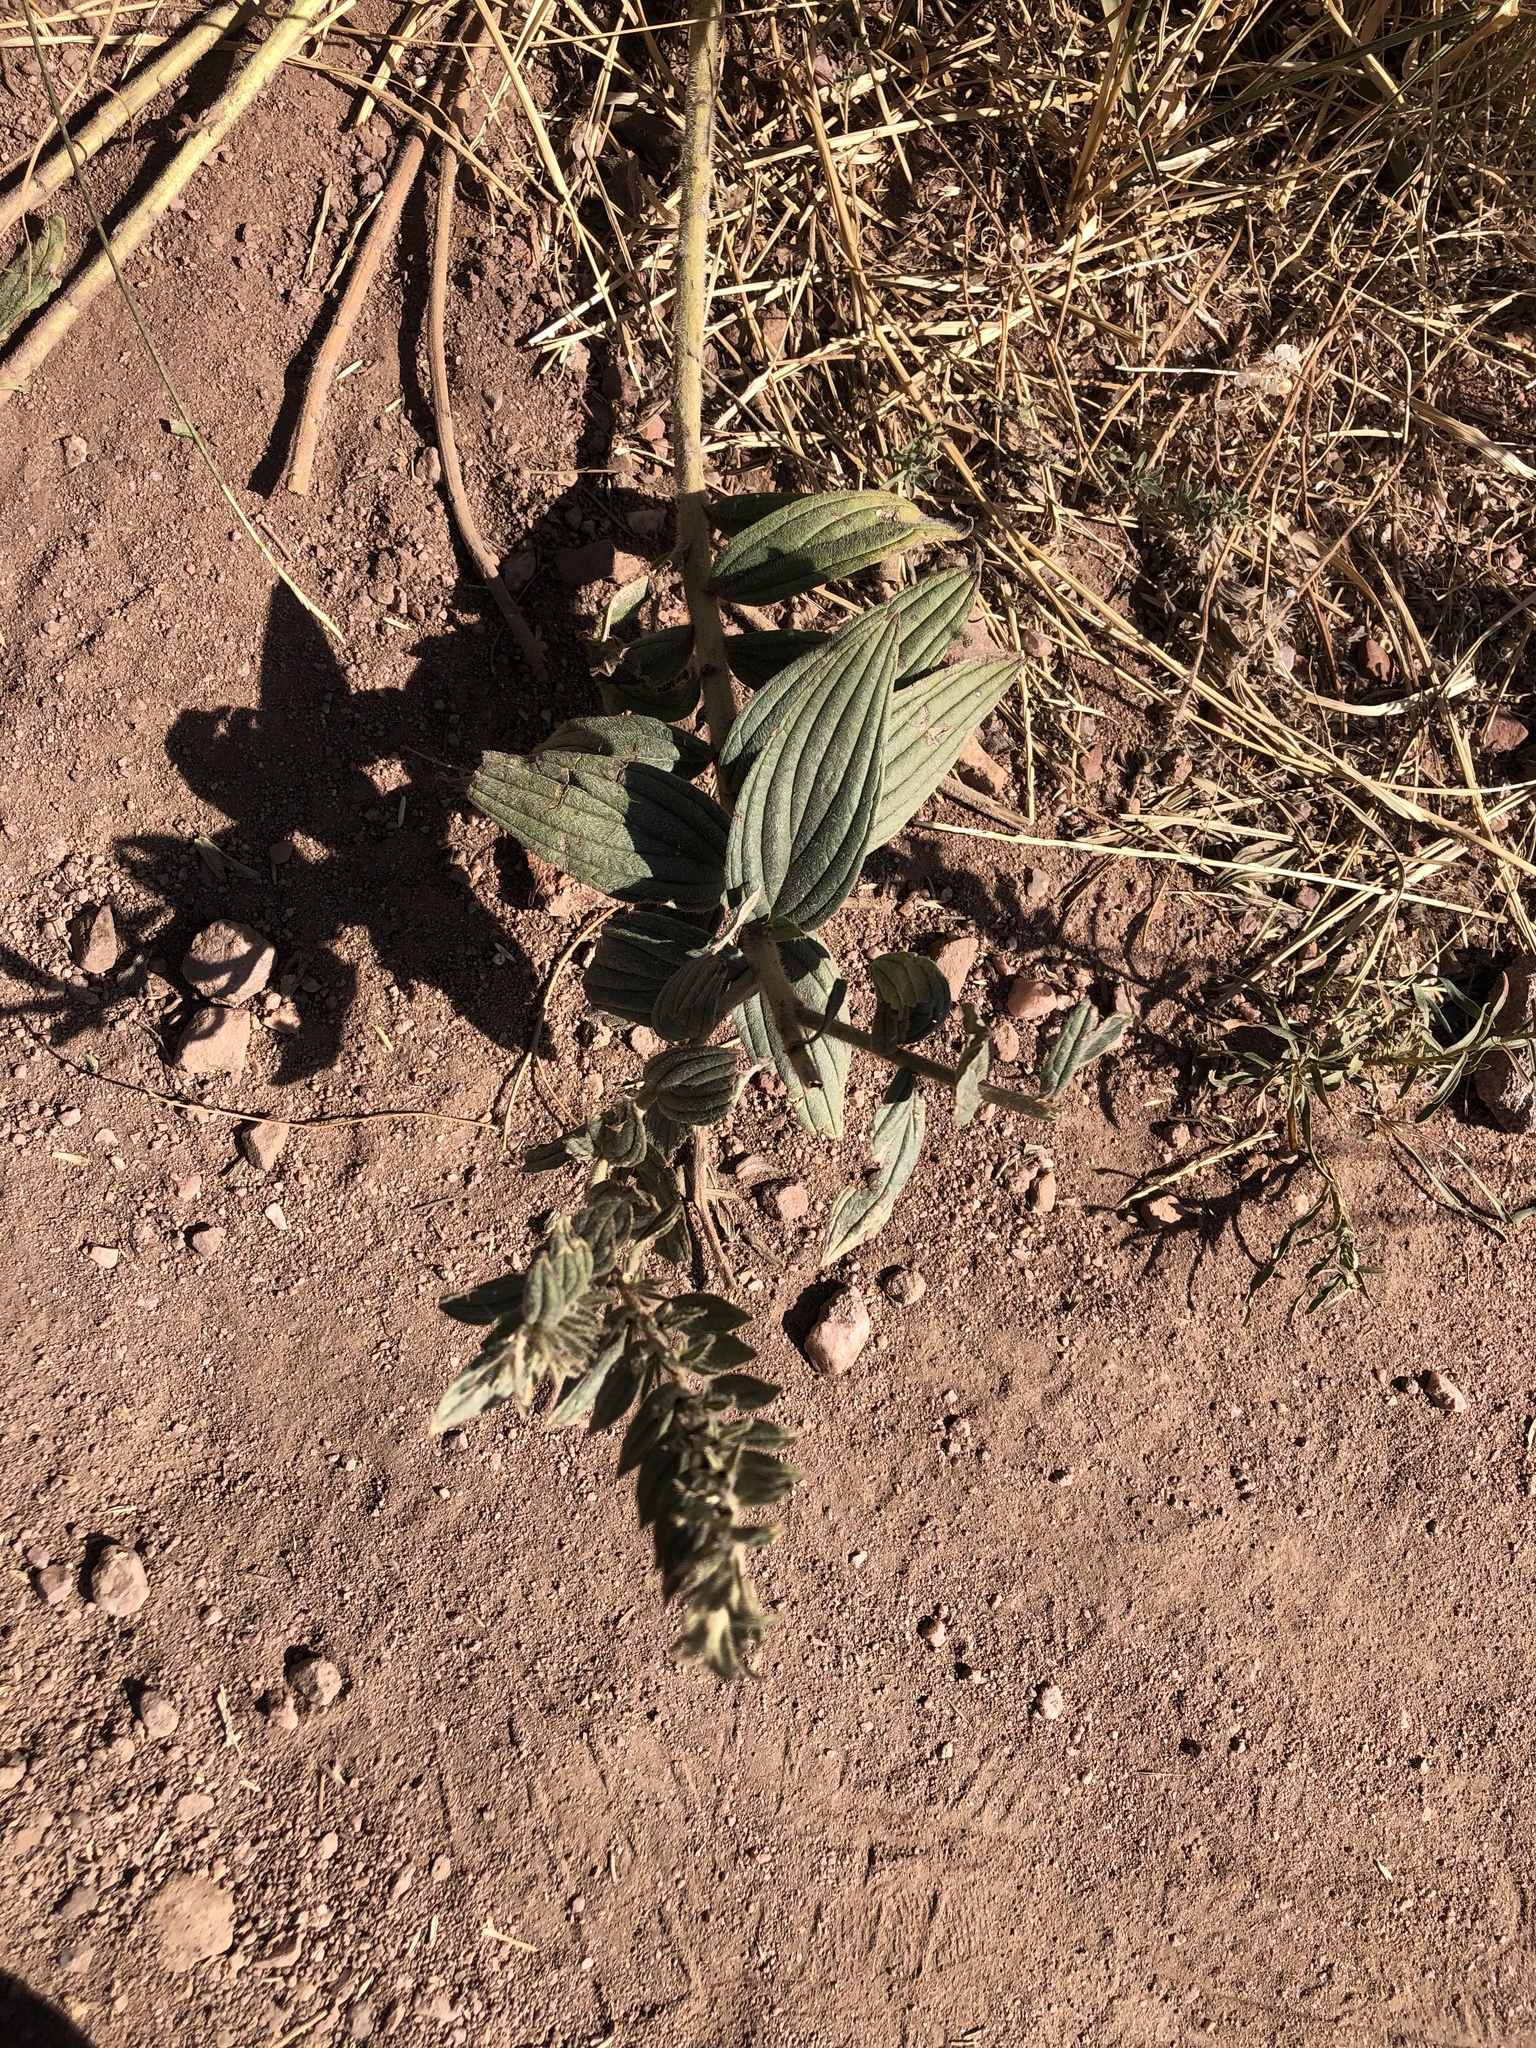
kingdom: Plantae
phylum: Tracheophyta
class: Magnoliopsida
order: Boraginales
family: Boraginaceae
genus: Lithospermum
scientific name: Lithospermum occidentale
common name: Western false gromwell
